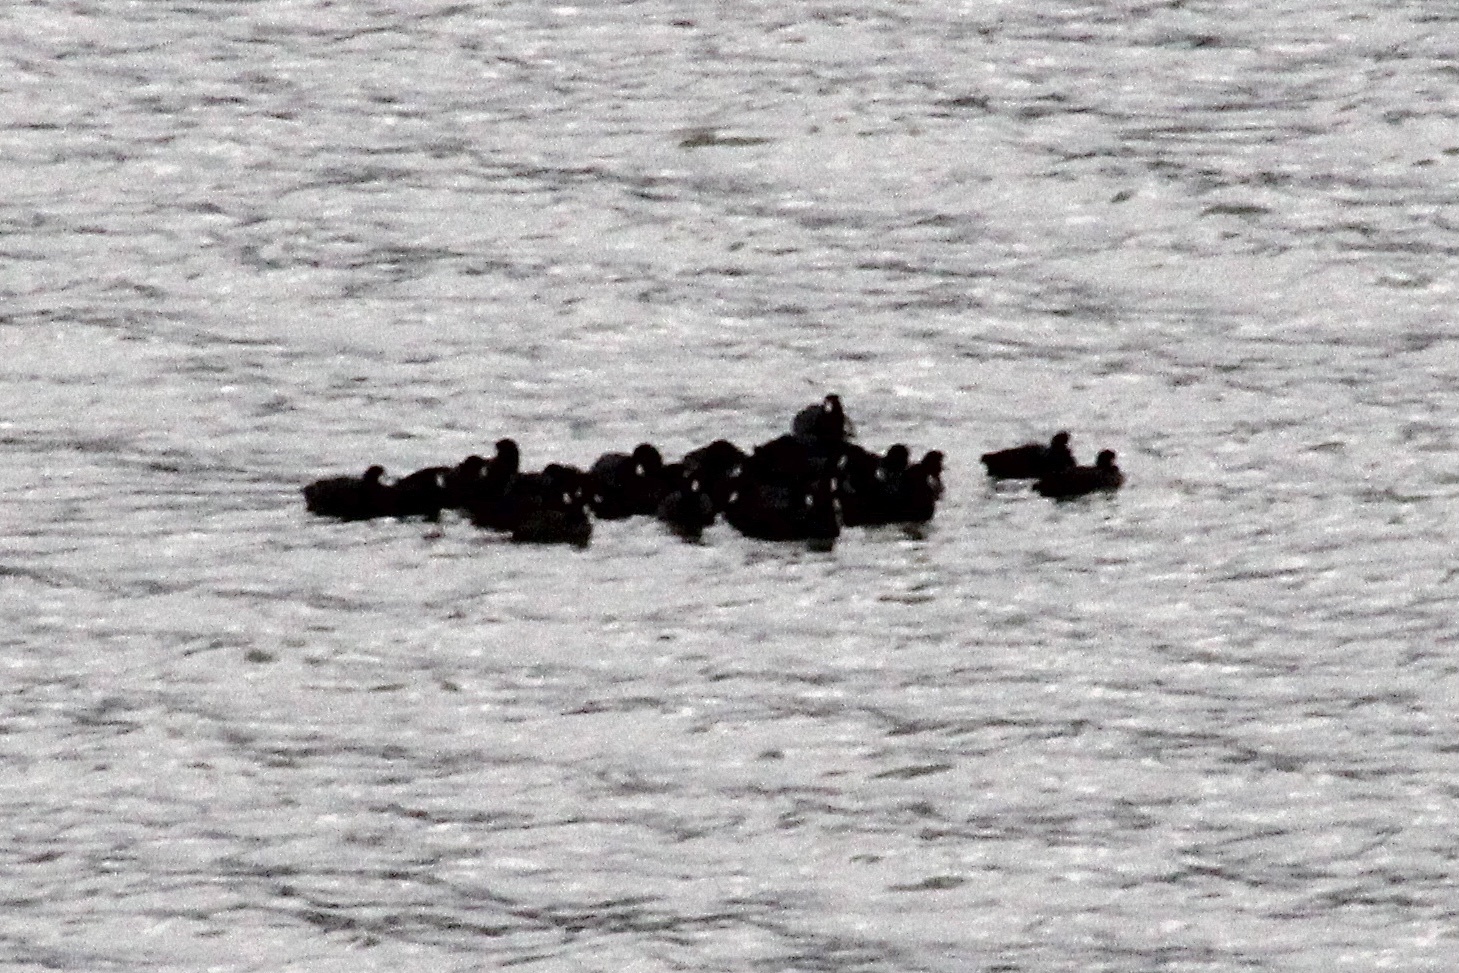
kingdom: Animalia
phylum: Chordata
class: Aves
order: Gruiformes
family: Rallidae
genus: Fulica
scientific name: Fulica americana
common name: American coot
